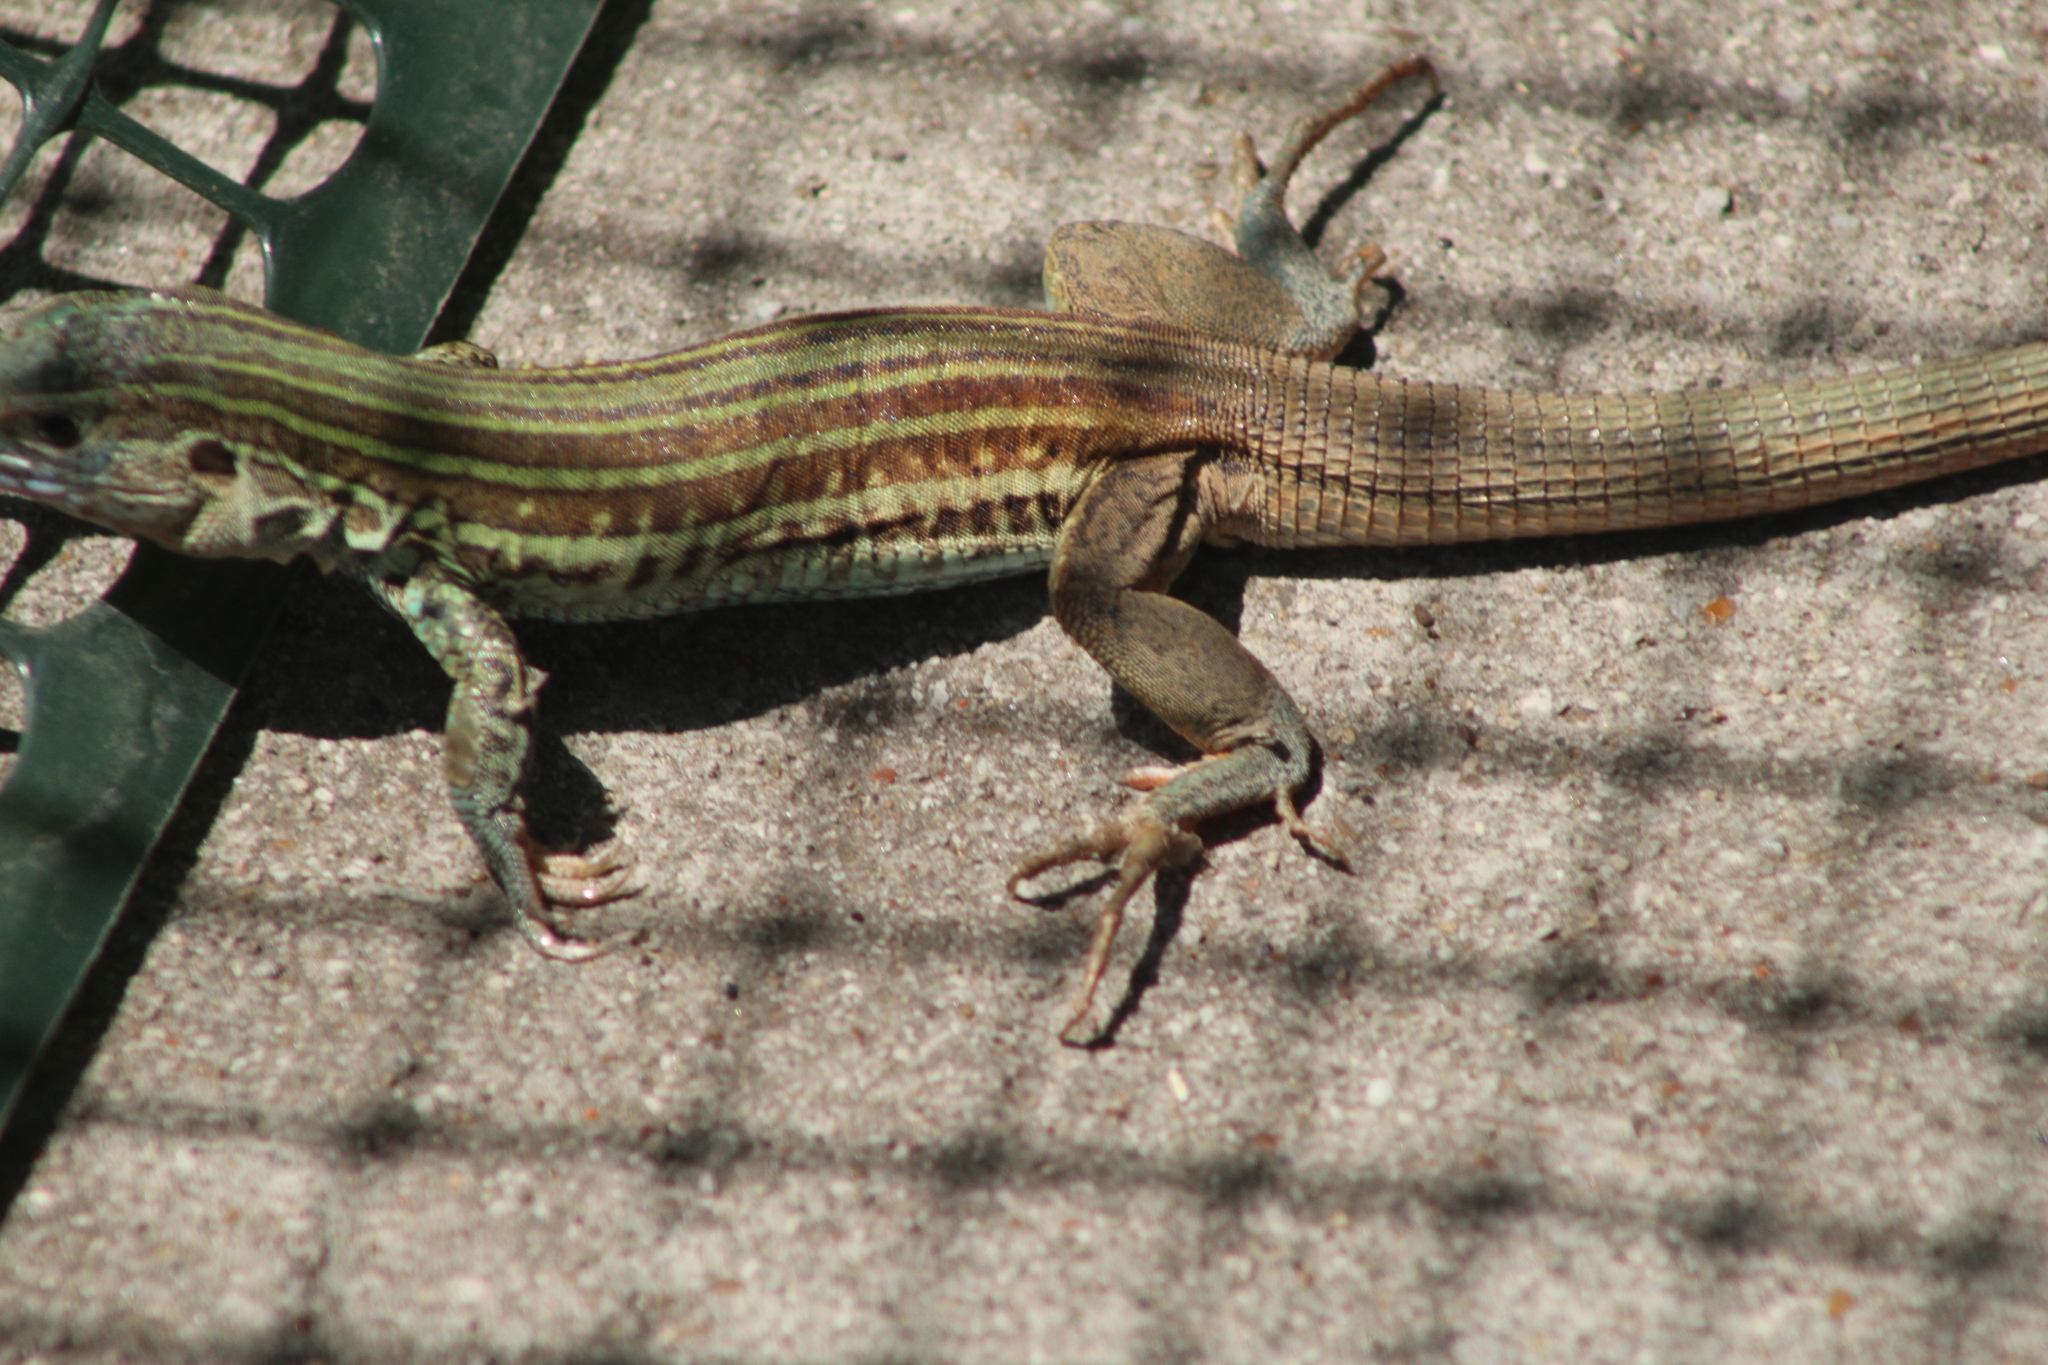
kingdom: Animalia
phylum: Chordata
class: Squamata
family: Teiidae
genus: Aspidoscelis
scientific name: Aspidoscelis gularis
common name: Eastern spotted whiptail
